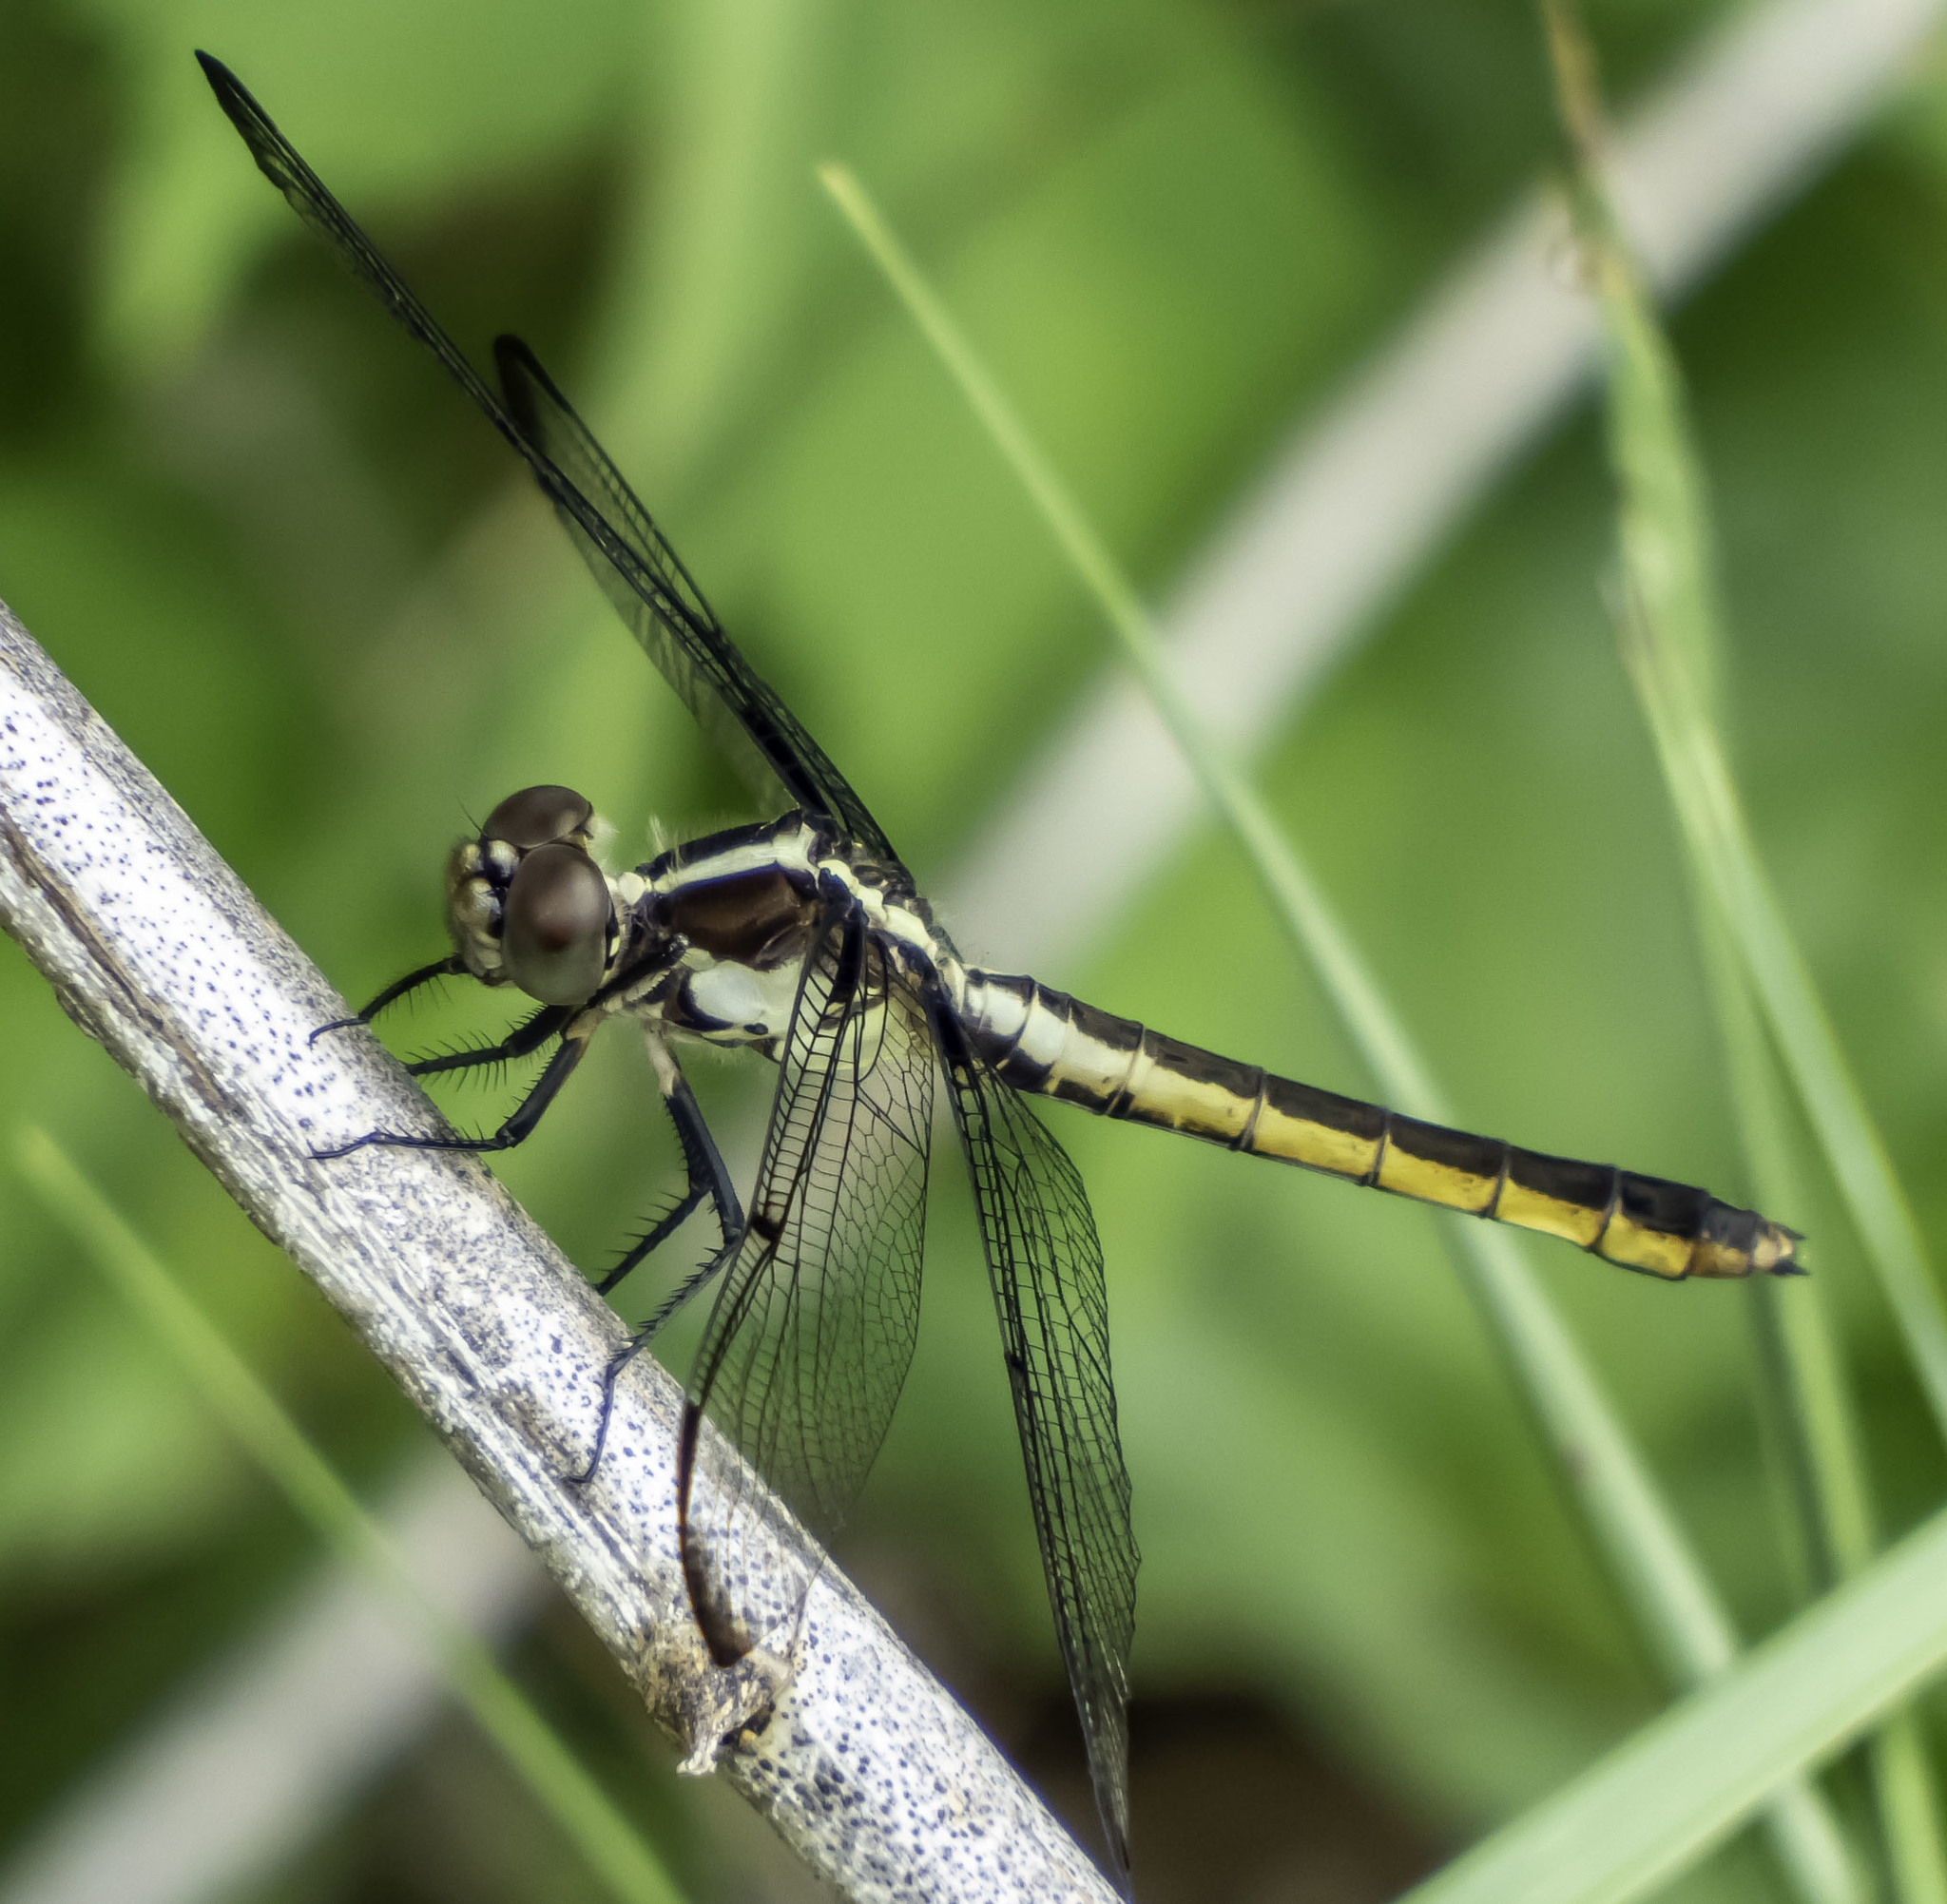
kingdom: Animalia
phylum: Arthropoda
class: Insecta
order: Odonata
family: Libellulidae
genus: Libellula
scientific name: Libellula incesta
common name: Slaty skimmer
